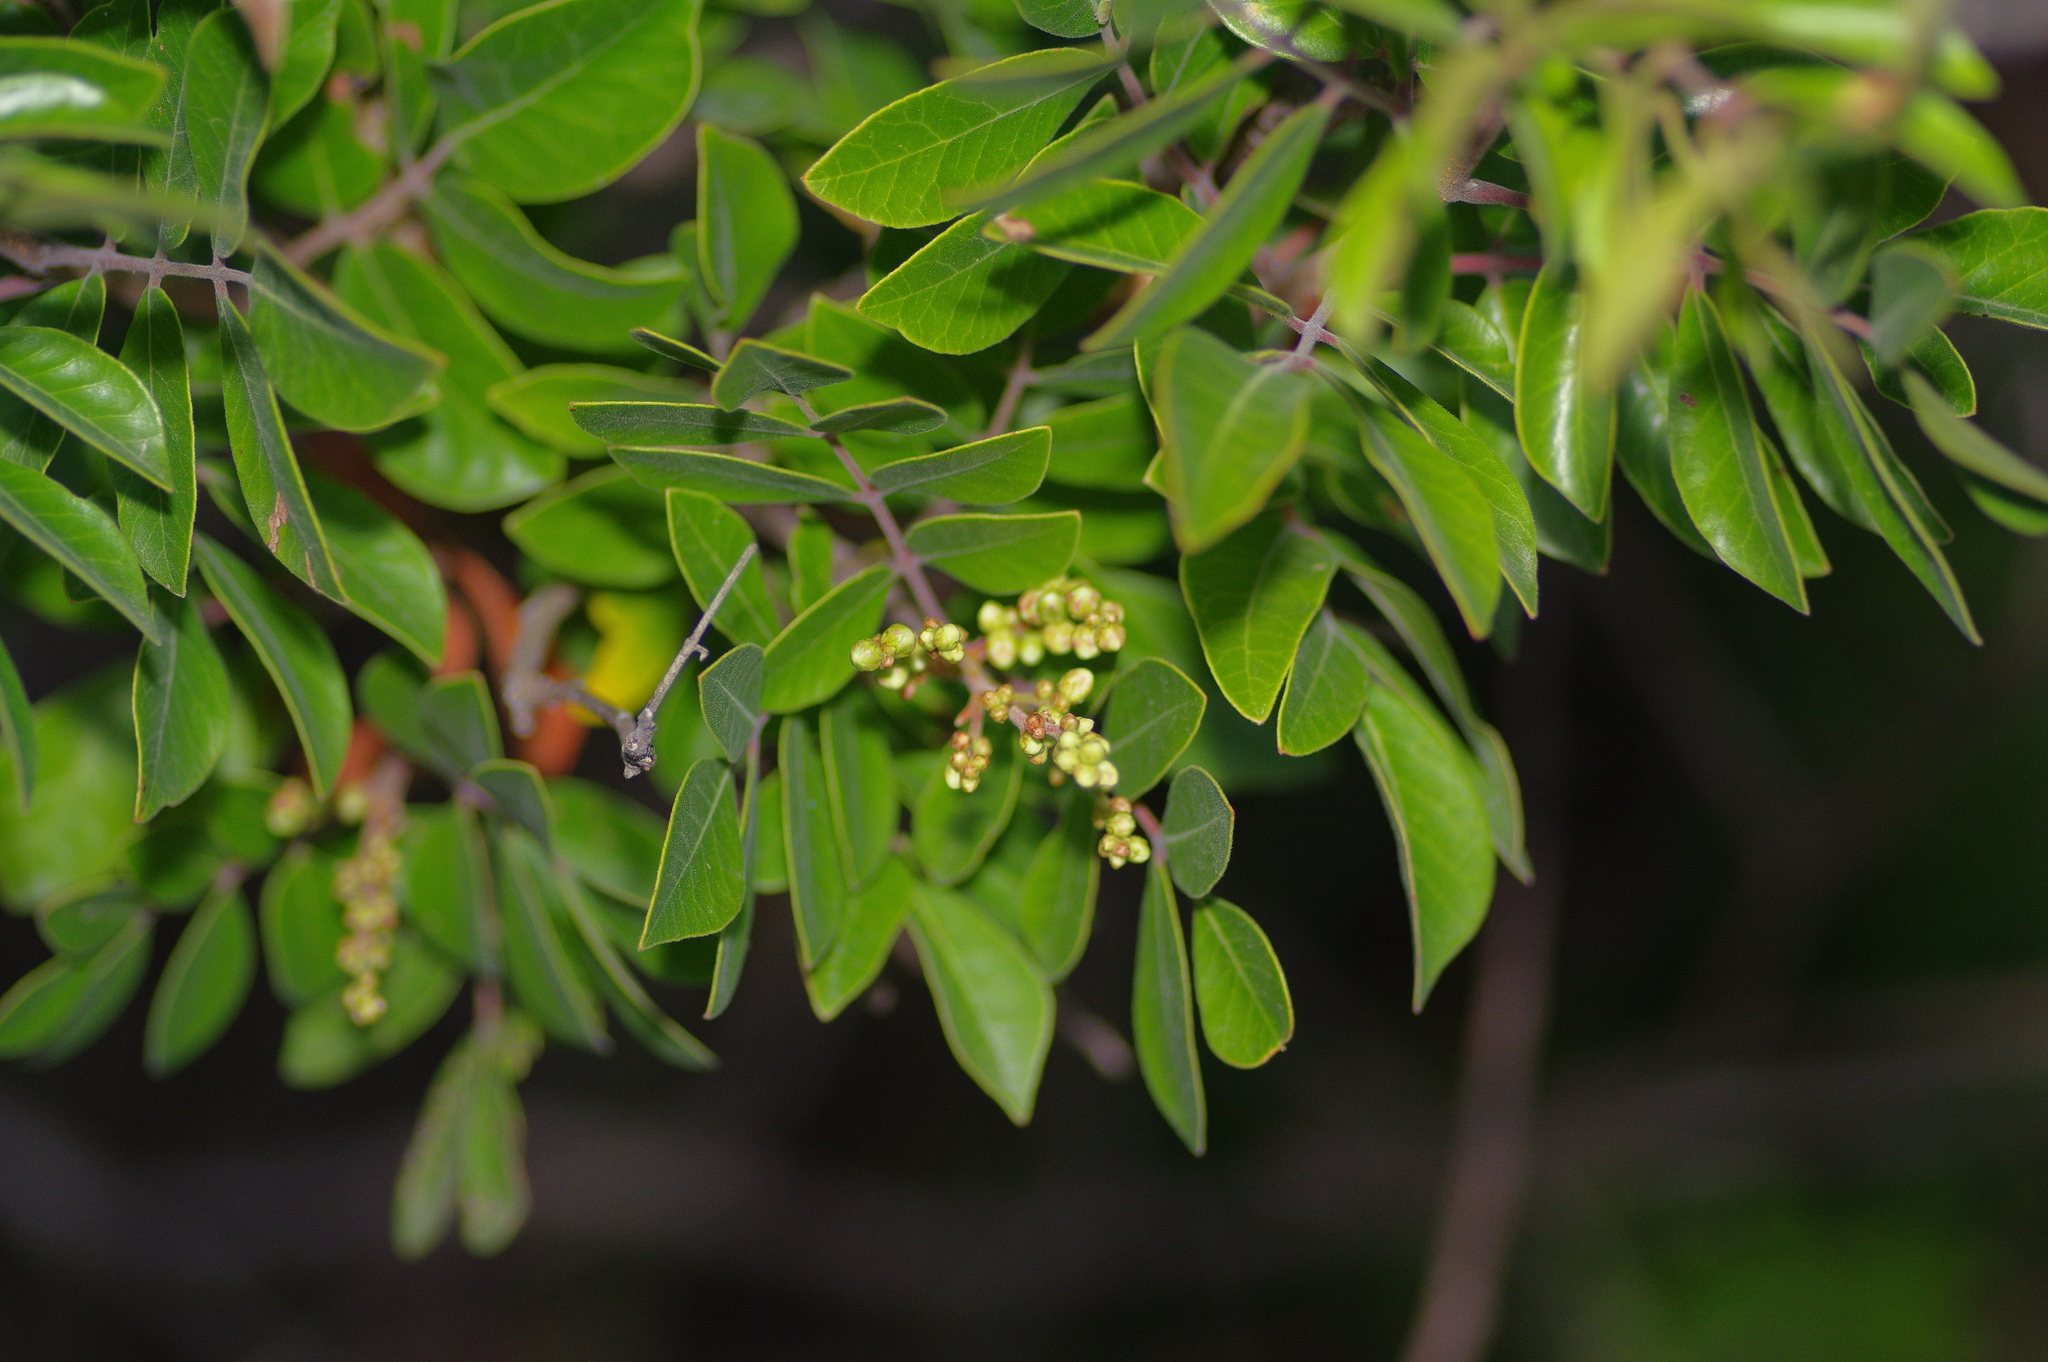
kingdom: Plantae
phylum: Tracheophyta
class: Magnoliopsida
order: Sapindales
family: Anacardiaceae
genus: Rhus
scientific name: Rhus virens
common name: Evergreen sumac
